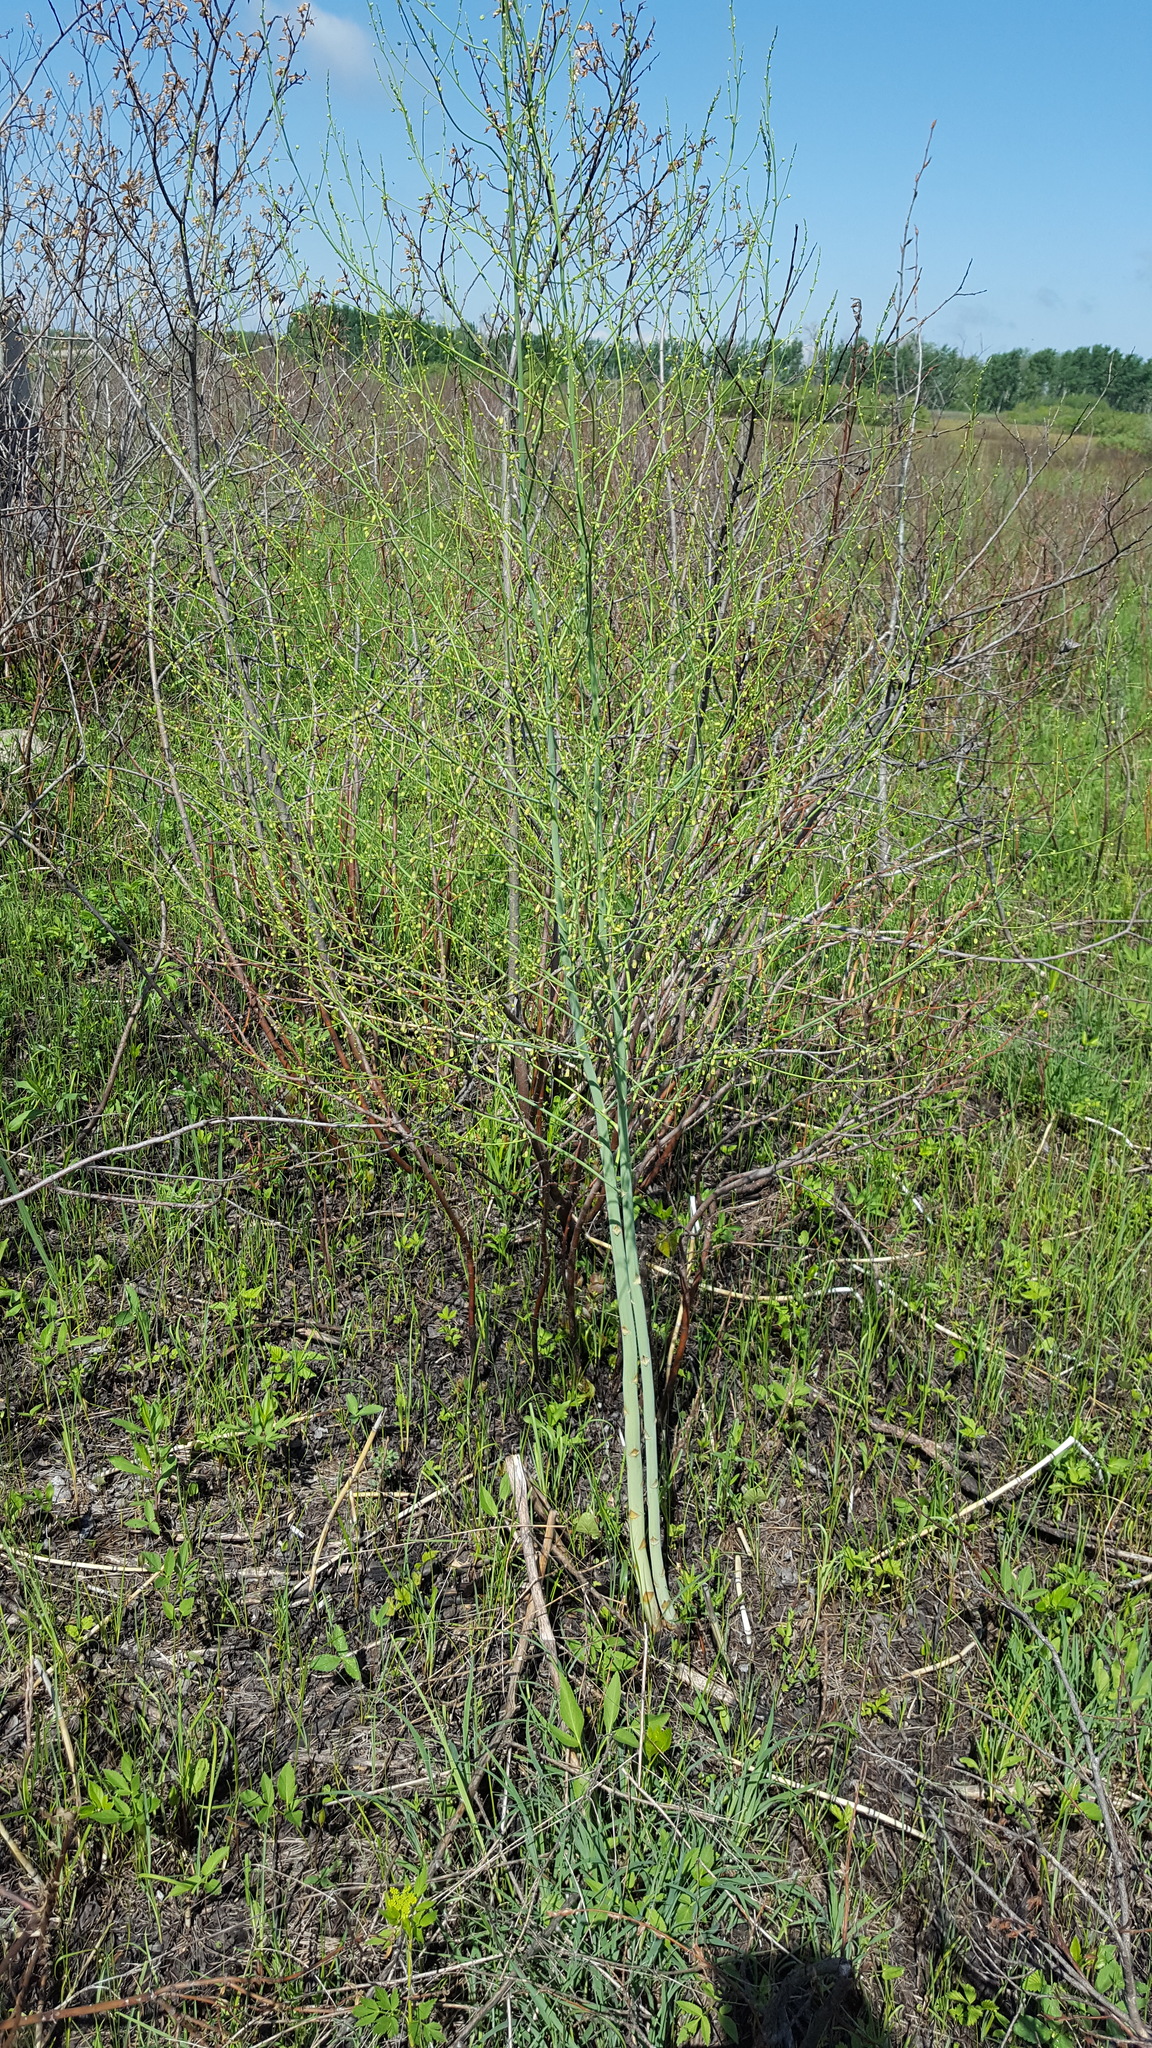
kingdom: Plantae
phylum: Tracheophyta
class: Liliopsida
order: Asparagales
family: Asparagaceae
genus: Asparagus
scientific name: Asparagus officinalis
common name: Garden asparagus
